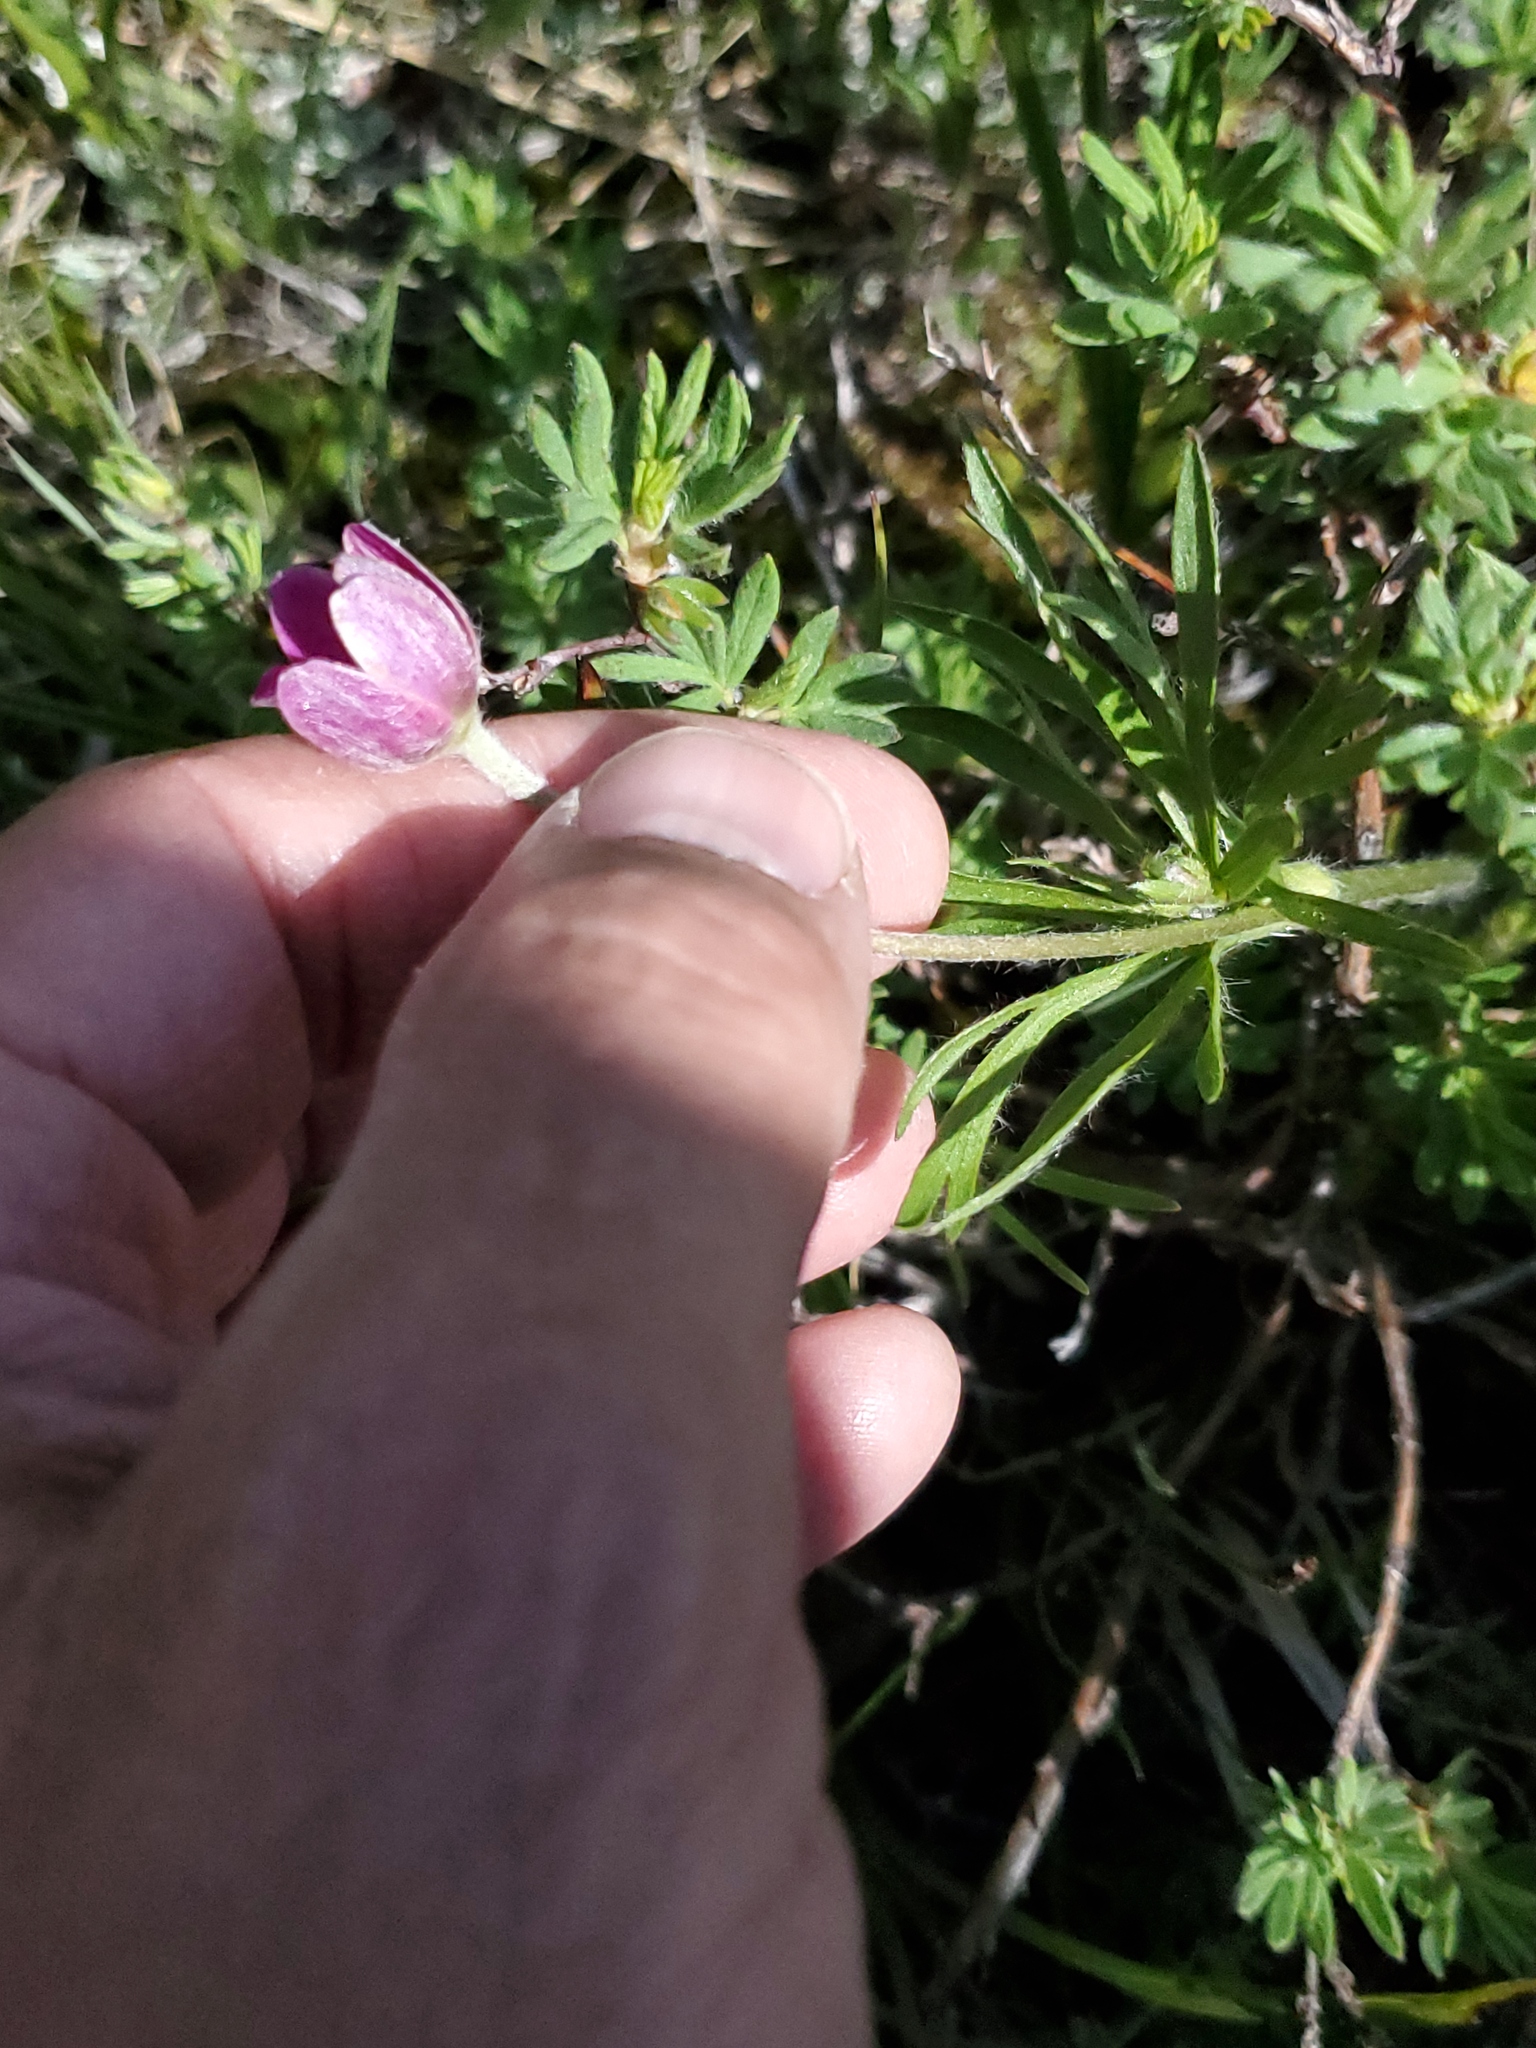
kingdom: Plantae
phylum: Tracheophyta
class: Magnoliopsida
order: Ranunculales
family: Ranunculaceae
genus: Anemone
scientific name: Anemone multifida
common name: Bird's-foot anemone
